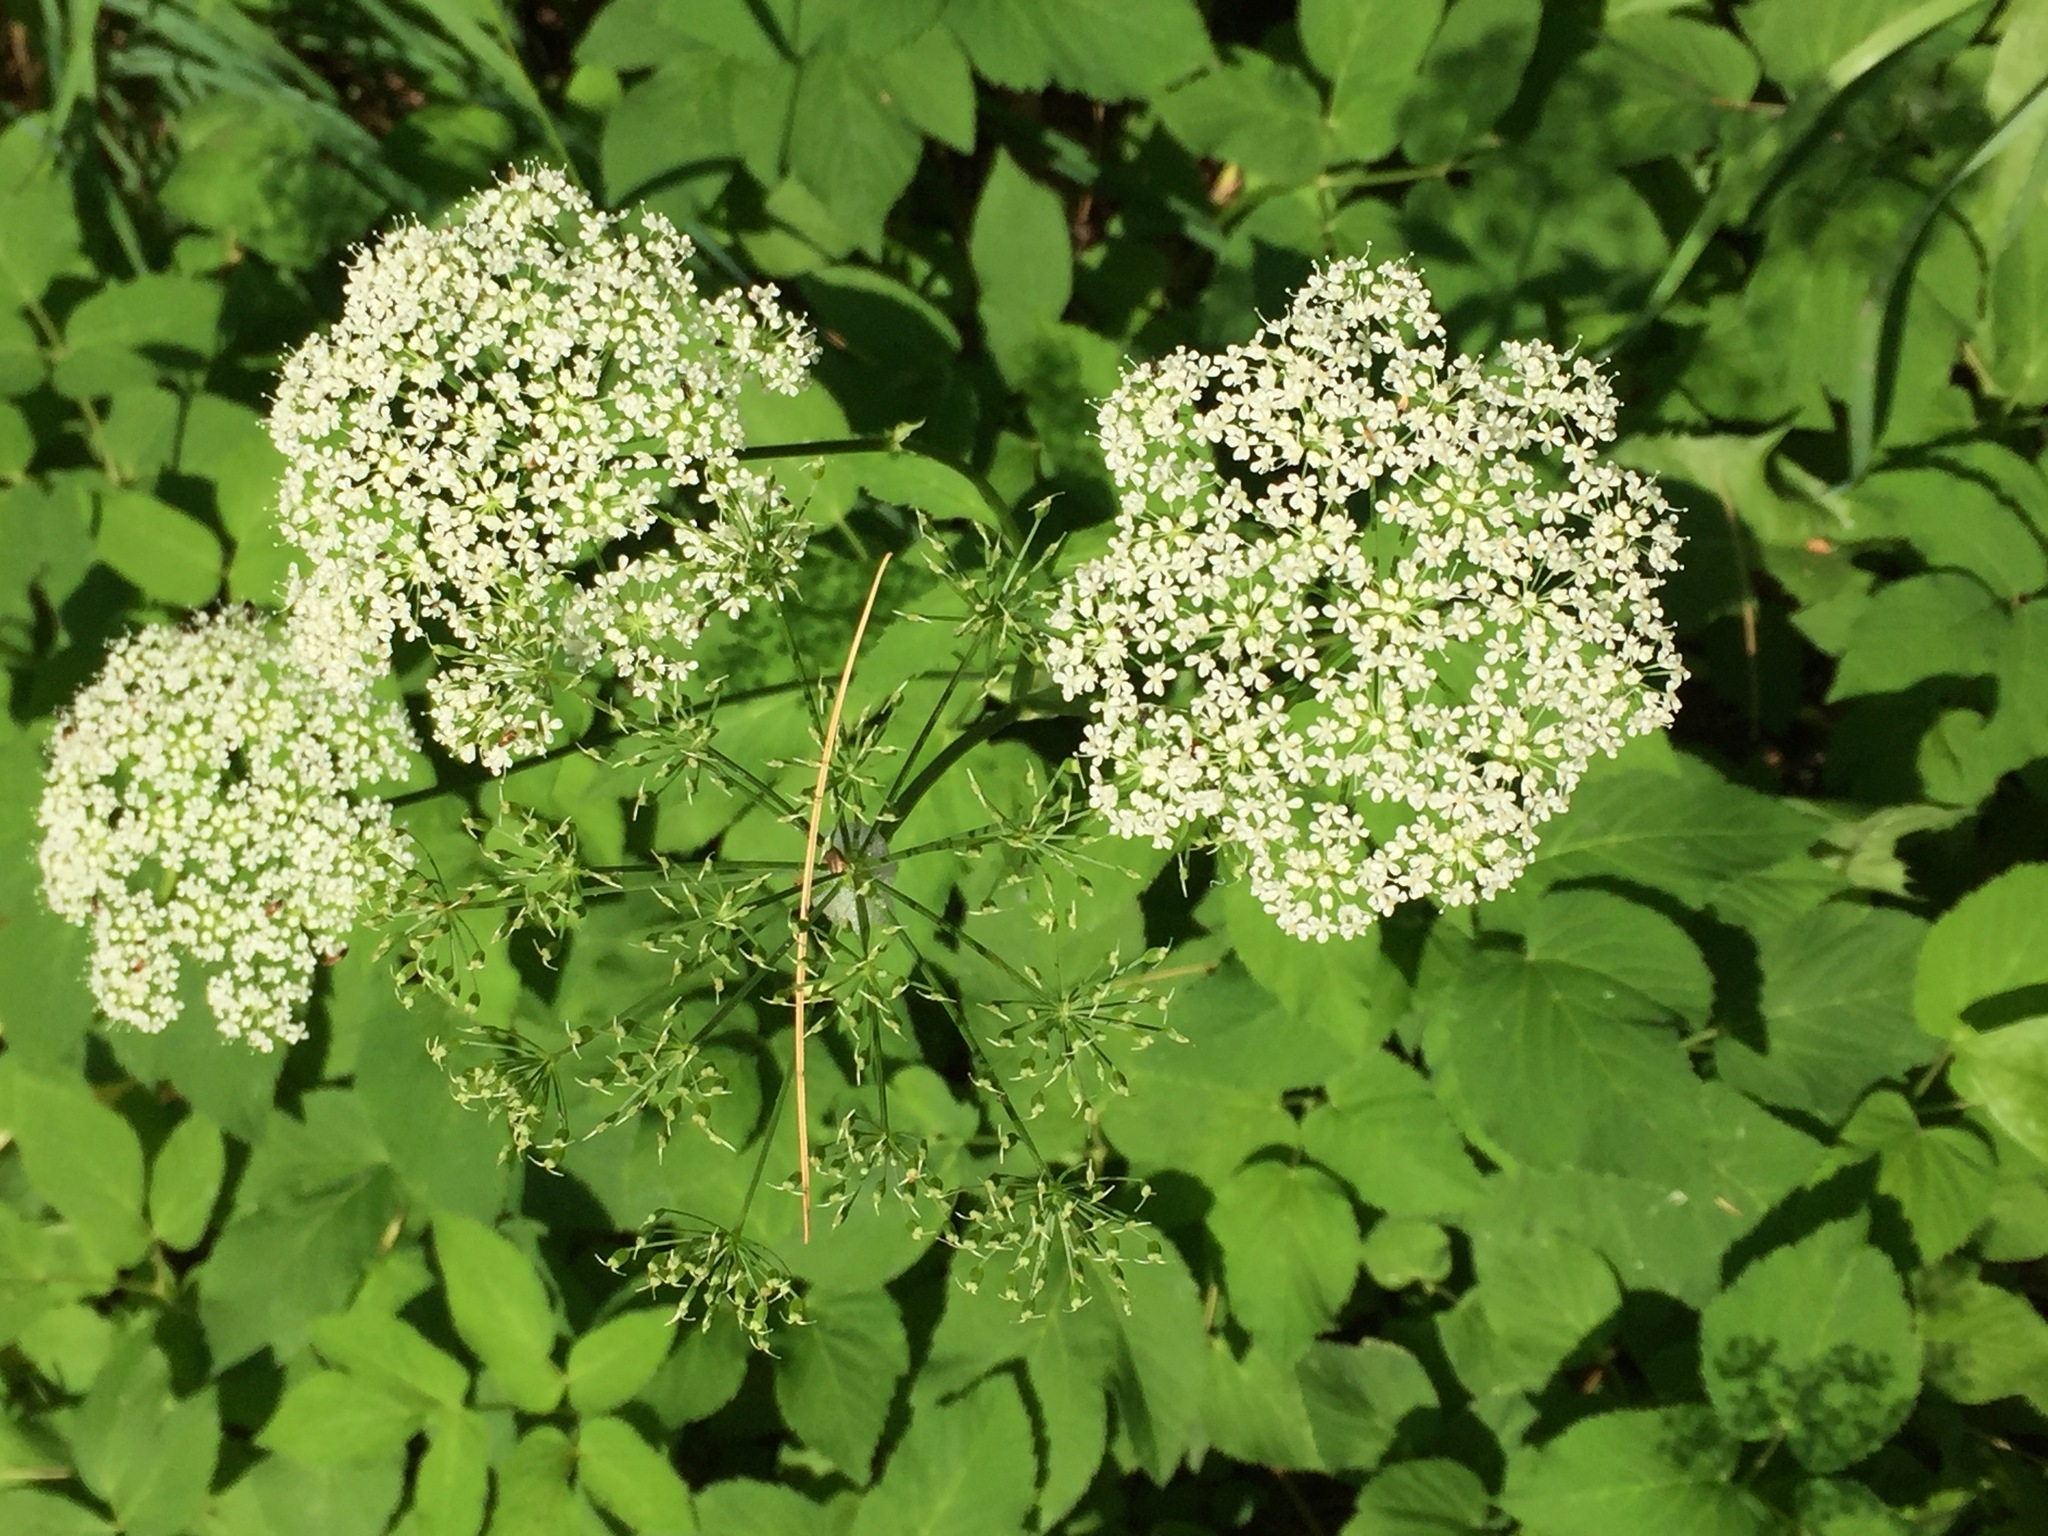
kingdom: Plantae
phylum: Tracheophyta
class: Magnoliopsida
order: Apiales
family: Apiaceae
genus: Aegopodium
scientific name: Aegopodium podagraria
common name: Ground-elder
